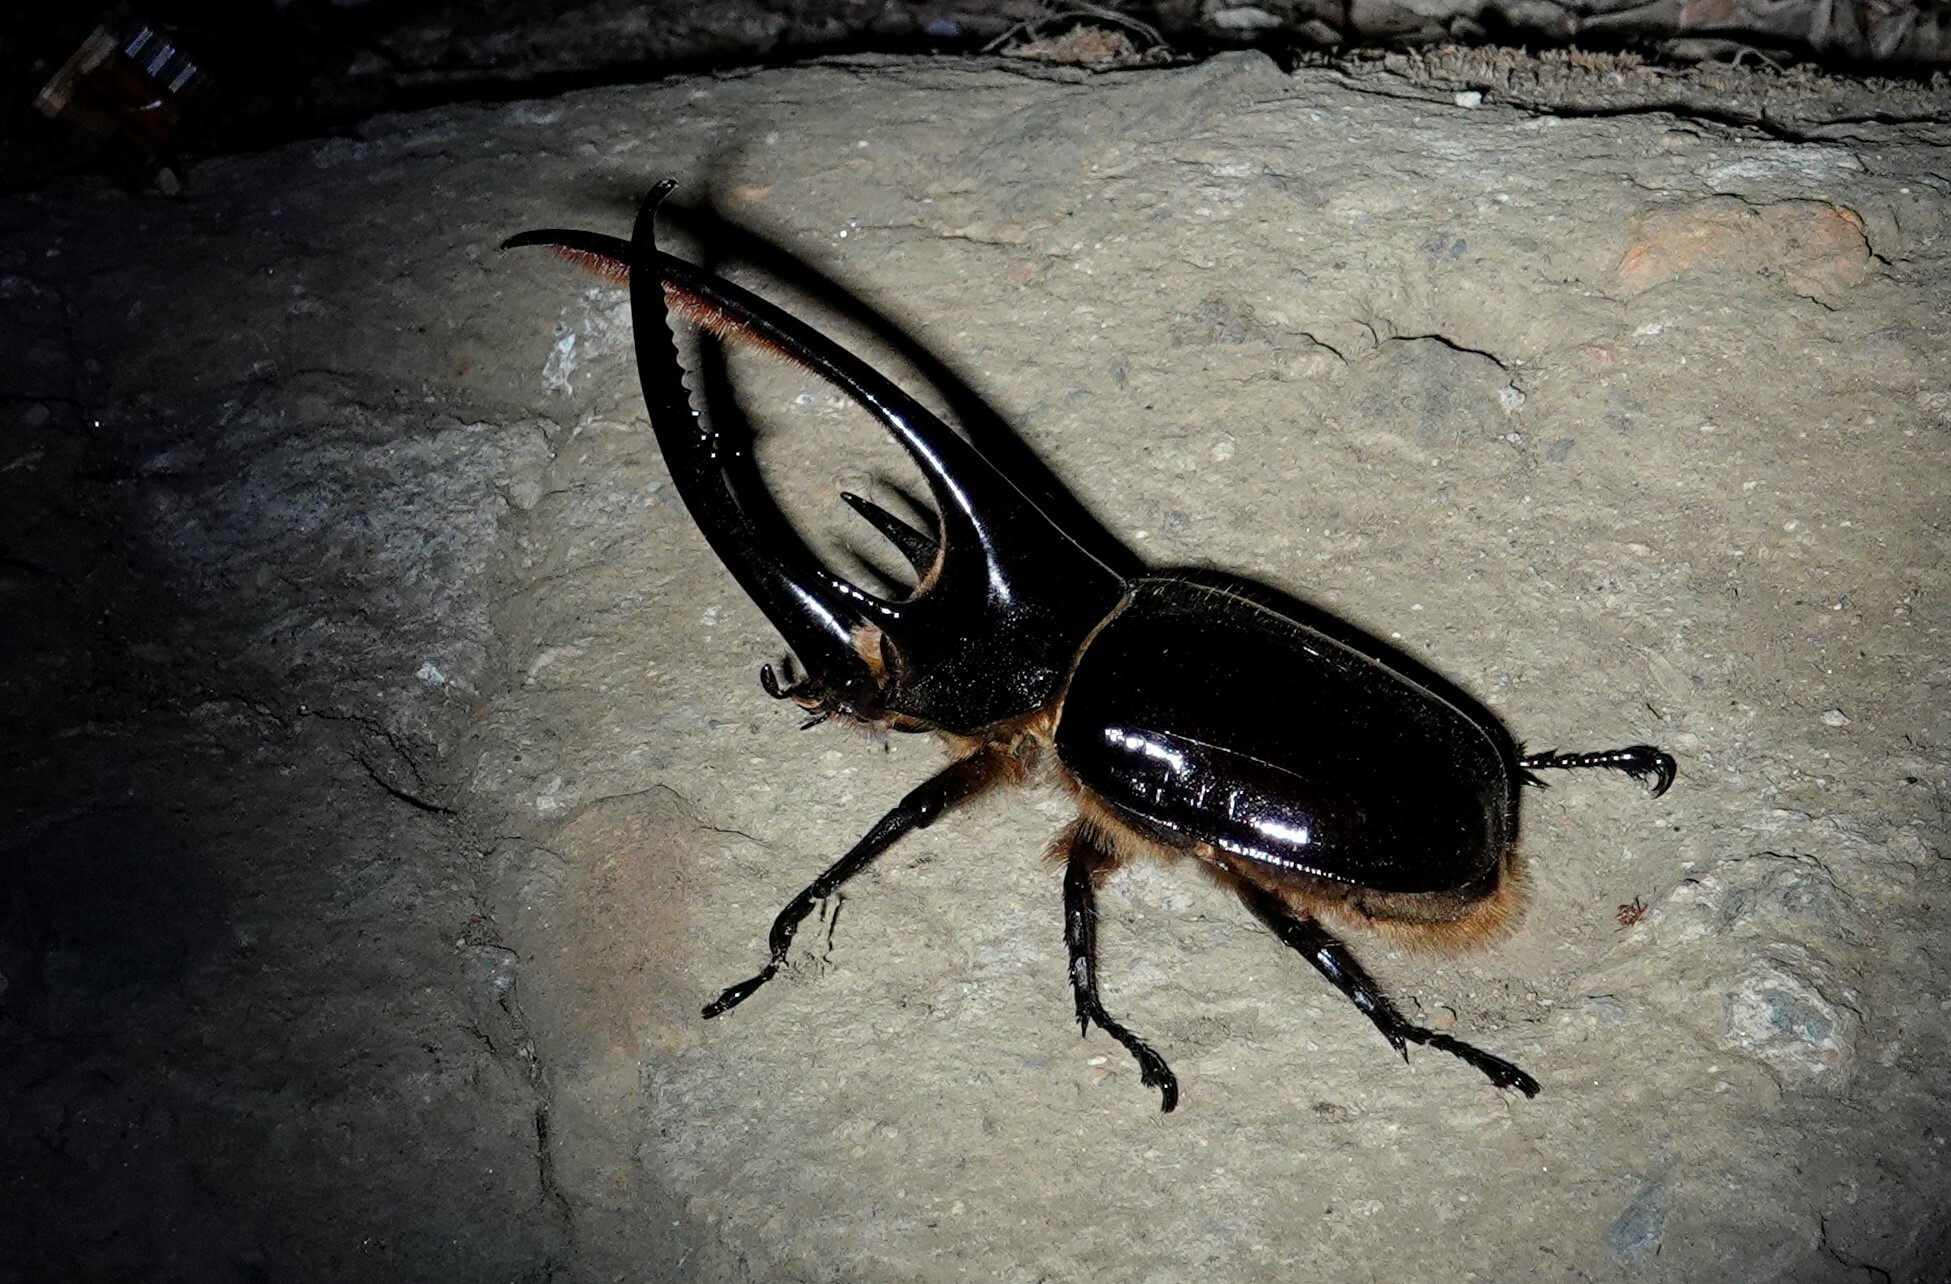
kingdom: Animalia
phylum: Arthropoda
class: Insecta
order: Coleoptera
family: Scarabaeidae
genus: Dynastes
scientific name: Dynastes neptunus
